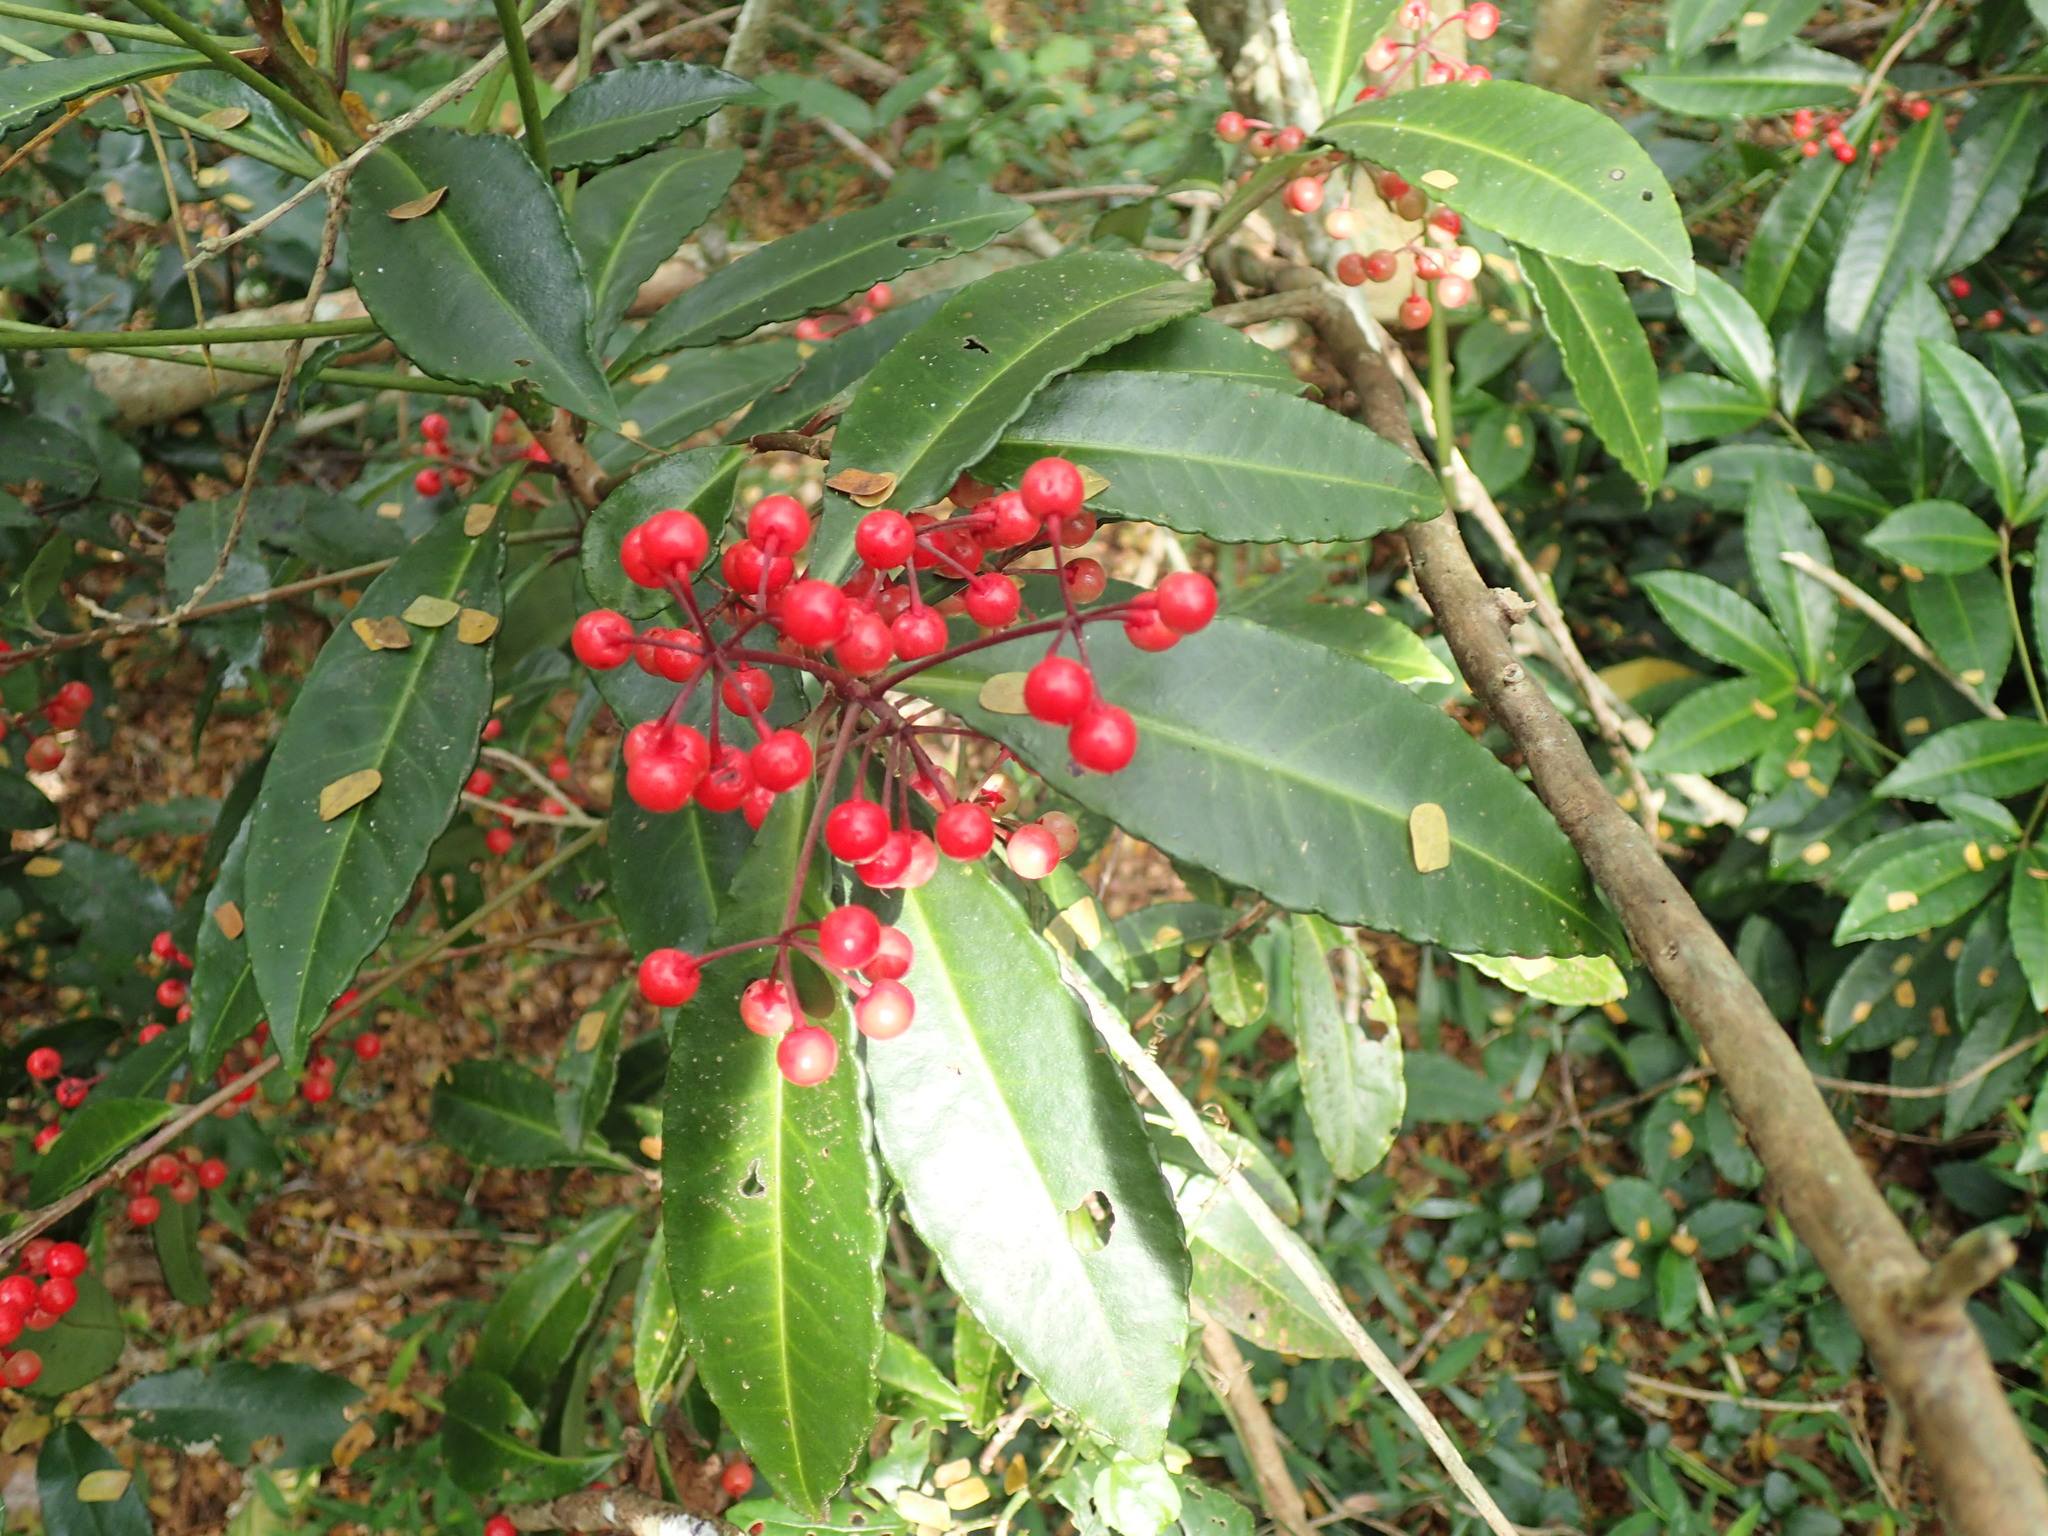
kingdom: Plantae
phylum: Tracheophyta
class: Magnoliopsida
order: Ericales
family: Primulaceae
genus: Ardisia
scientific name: Ardisia crenata
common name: Hen's eyes
